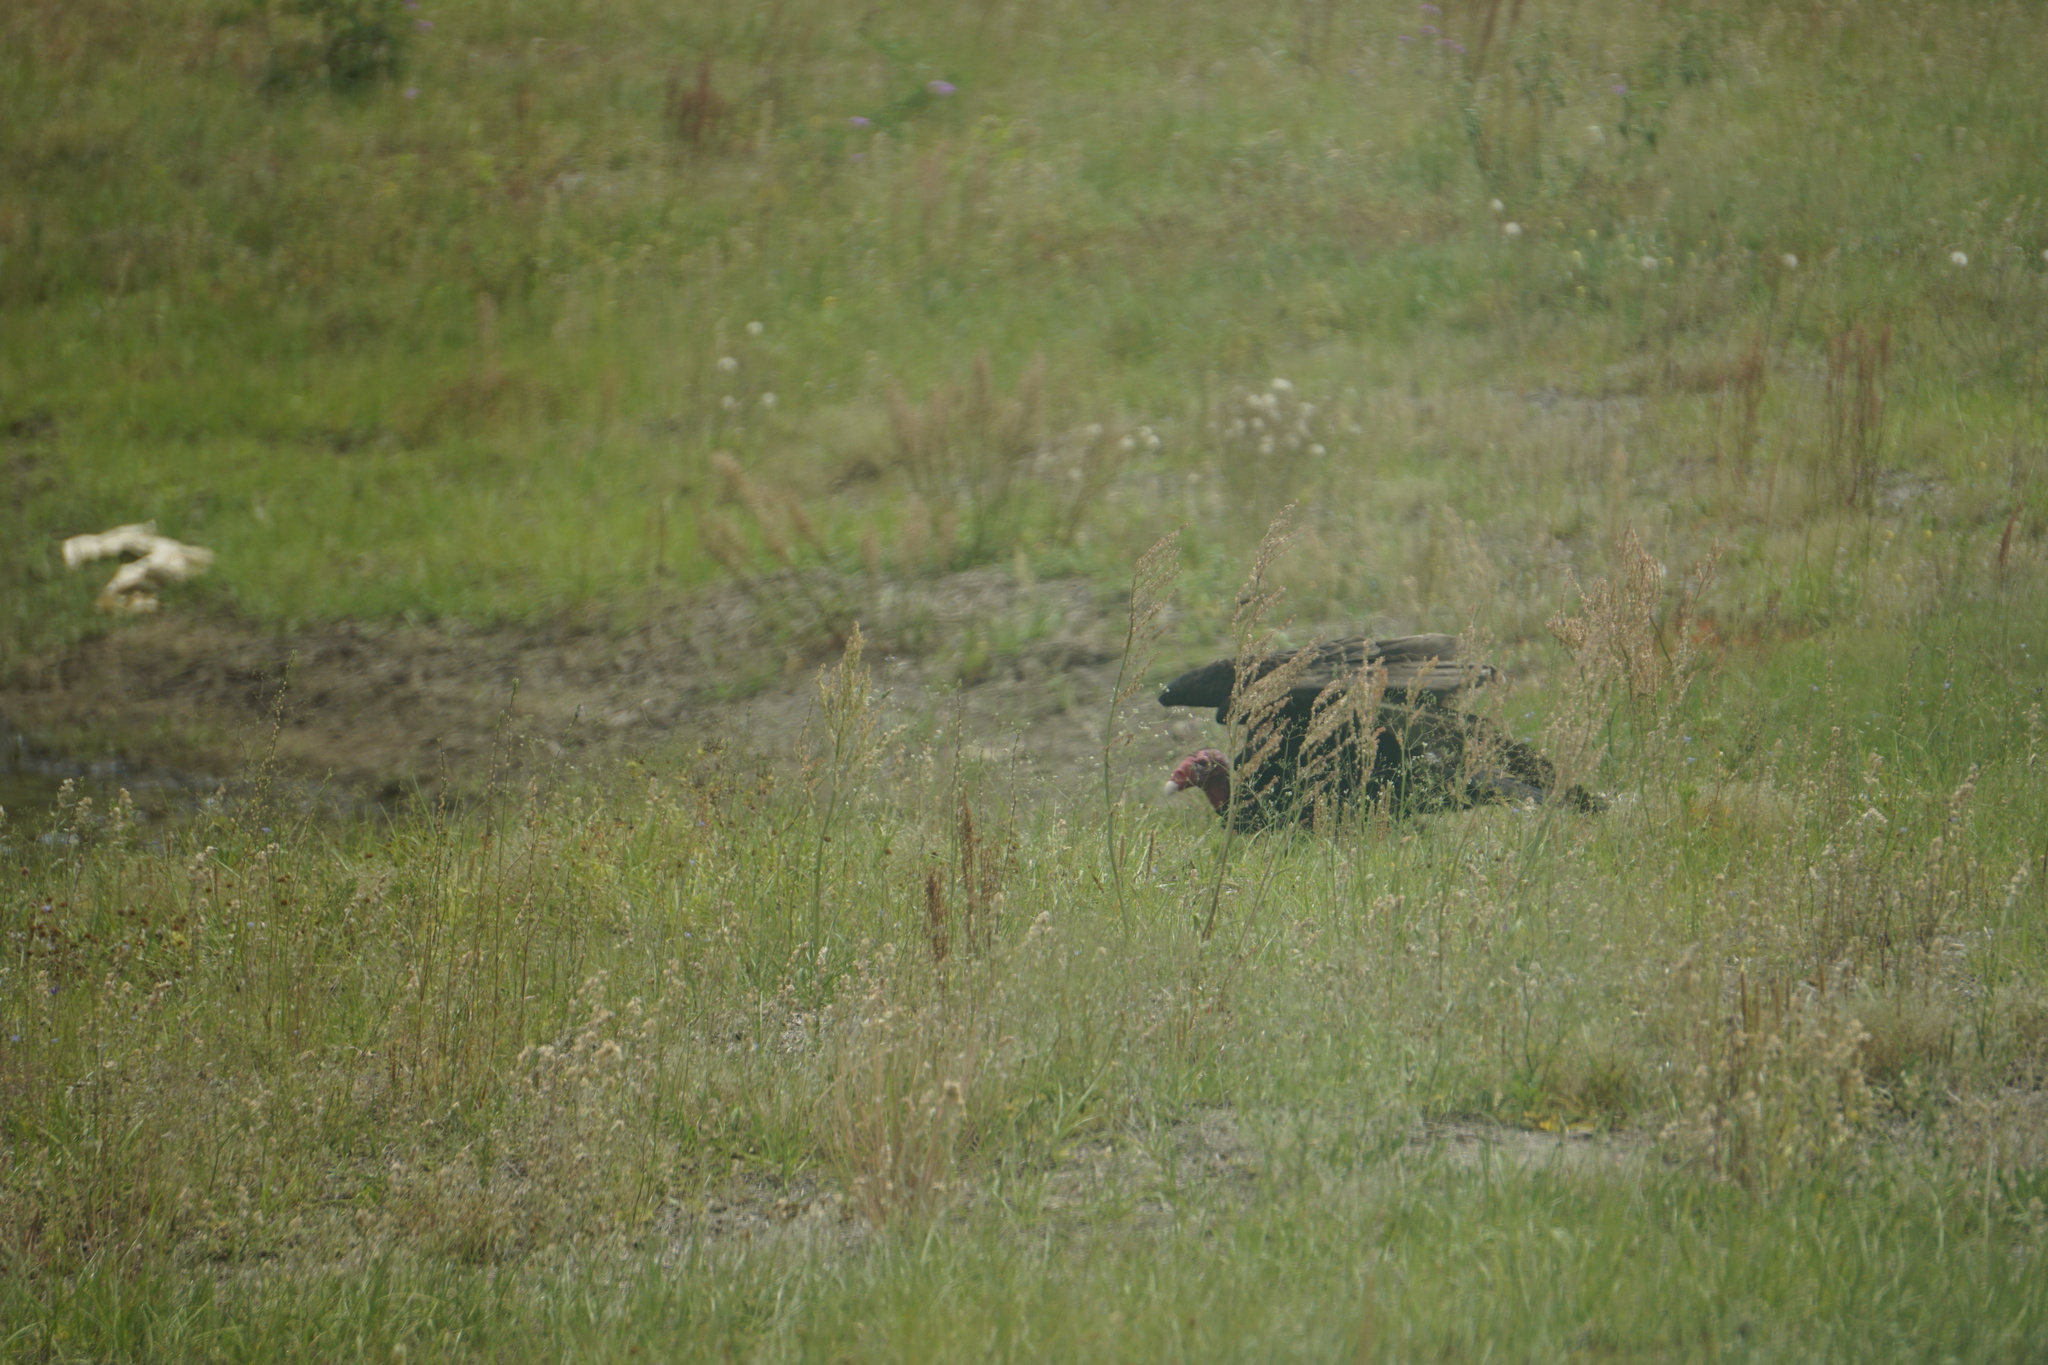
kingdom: Animalia
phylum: Chordata
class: Aves
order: Accipitriformes
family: Cathartidae
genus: Cathartes
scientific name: Cathartes aura
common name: Turkey vulture
